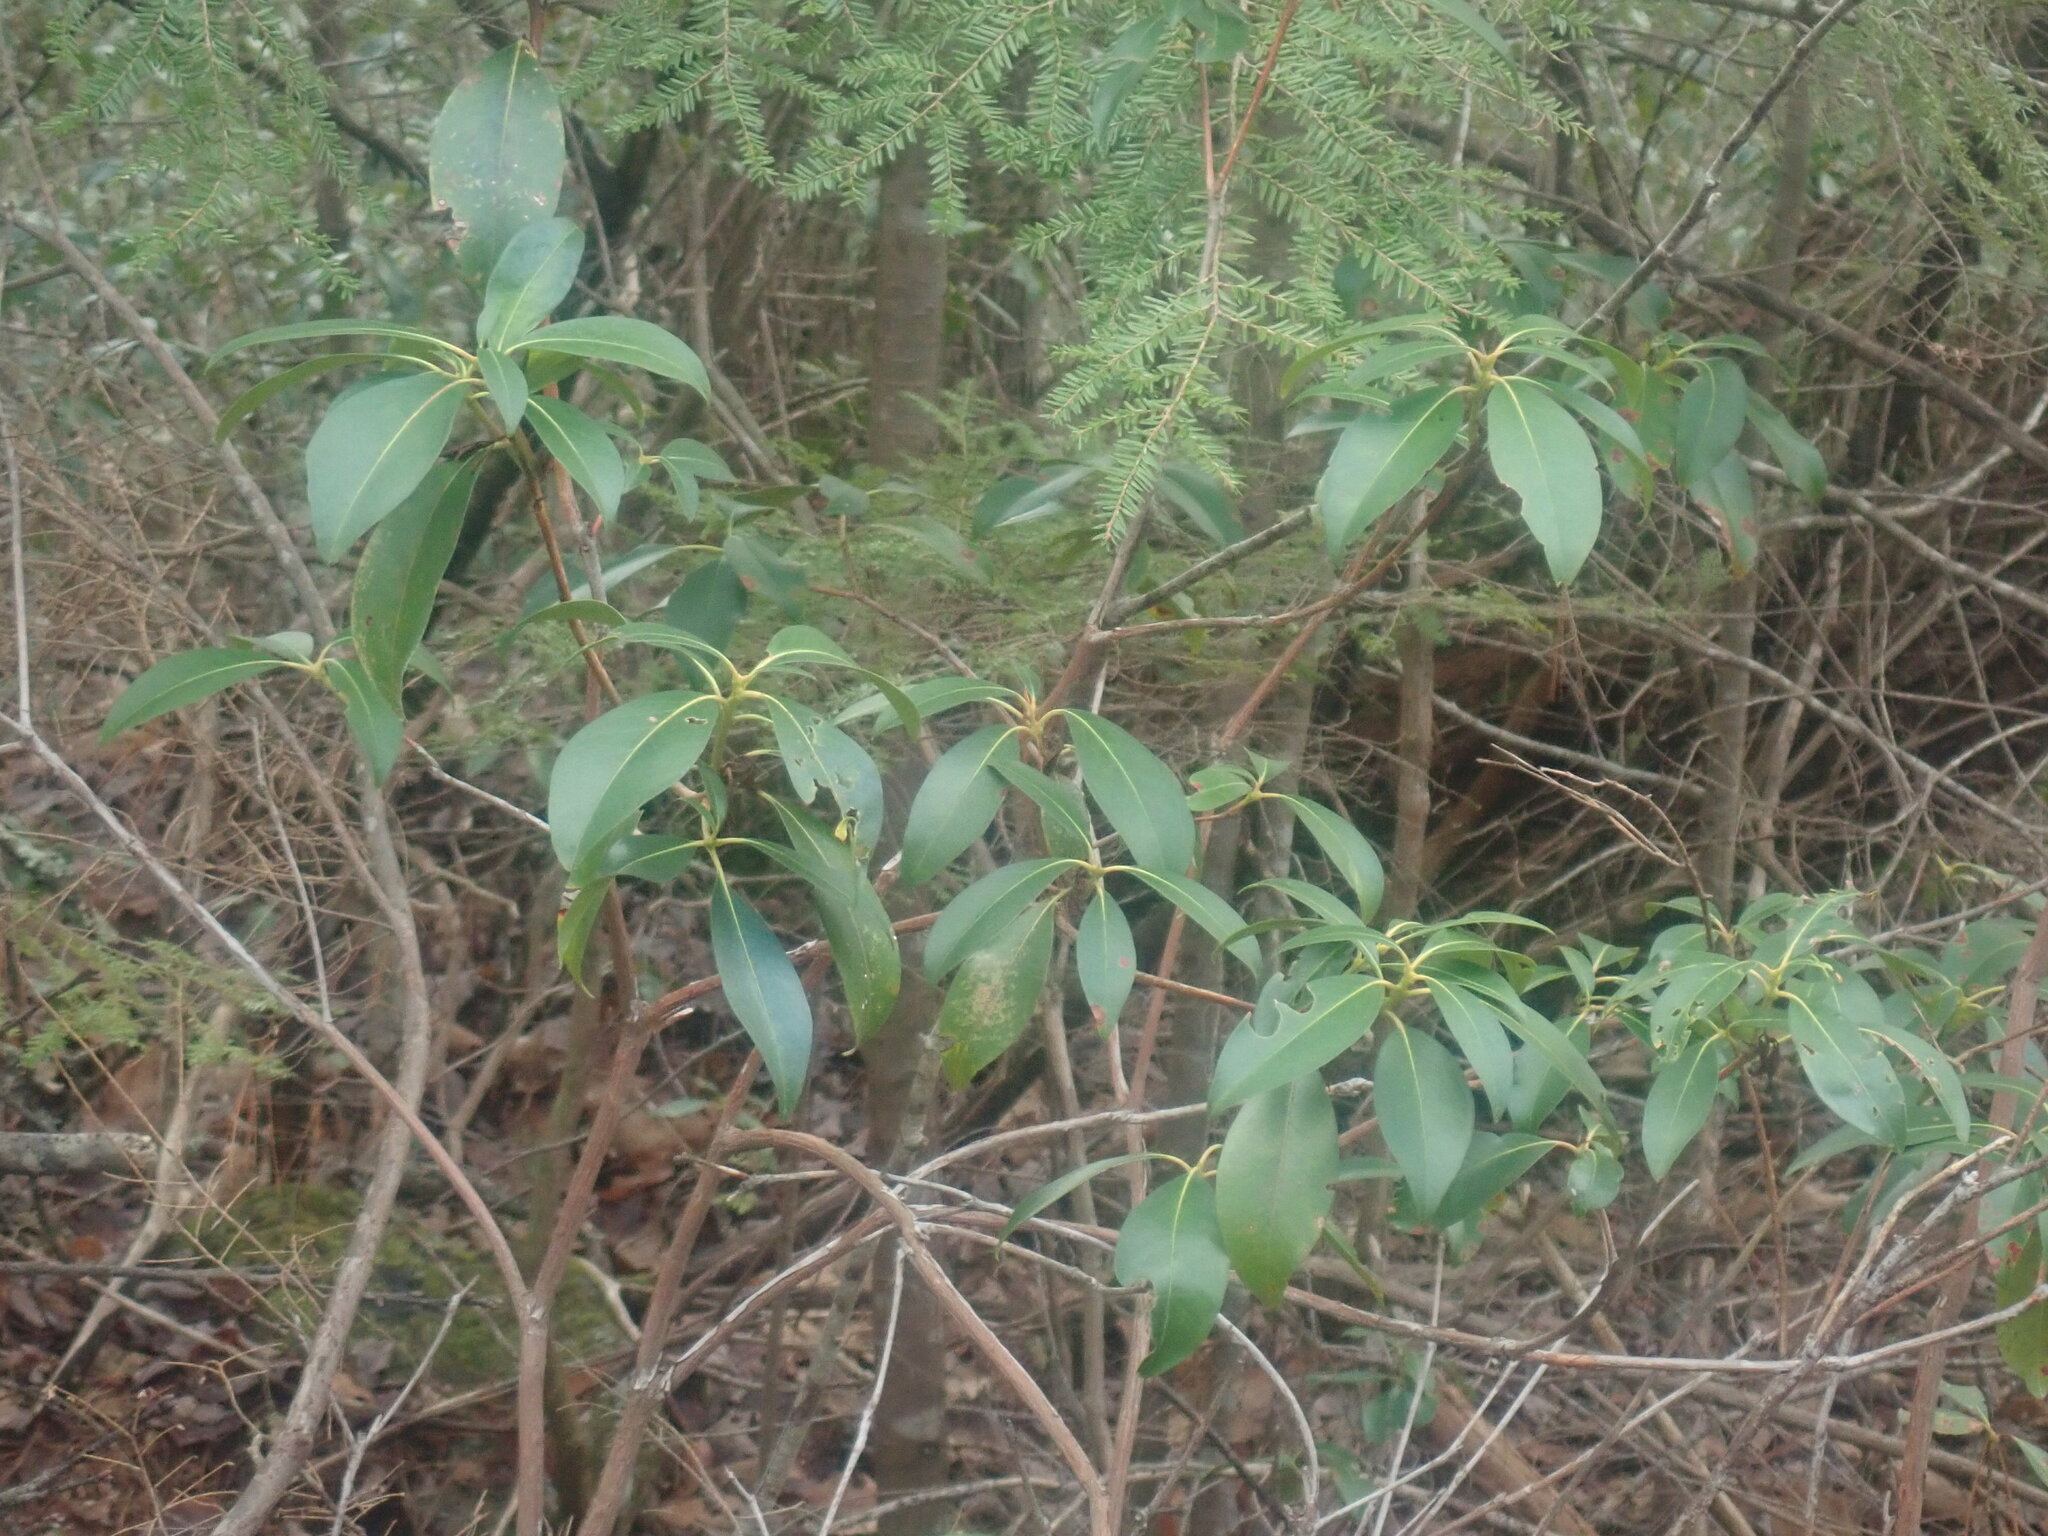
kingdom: Plantae
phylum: Tracheophyta
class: Magnoliopsida
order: Ericales
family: Ericaceae
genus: Kalmia
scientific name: Kalmia latifolia
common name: Mountain-laurel
